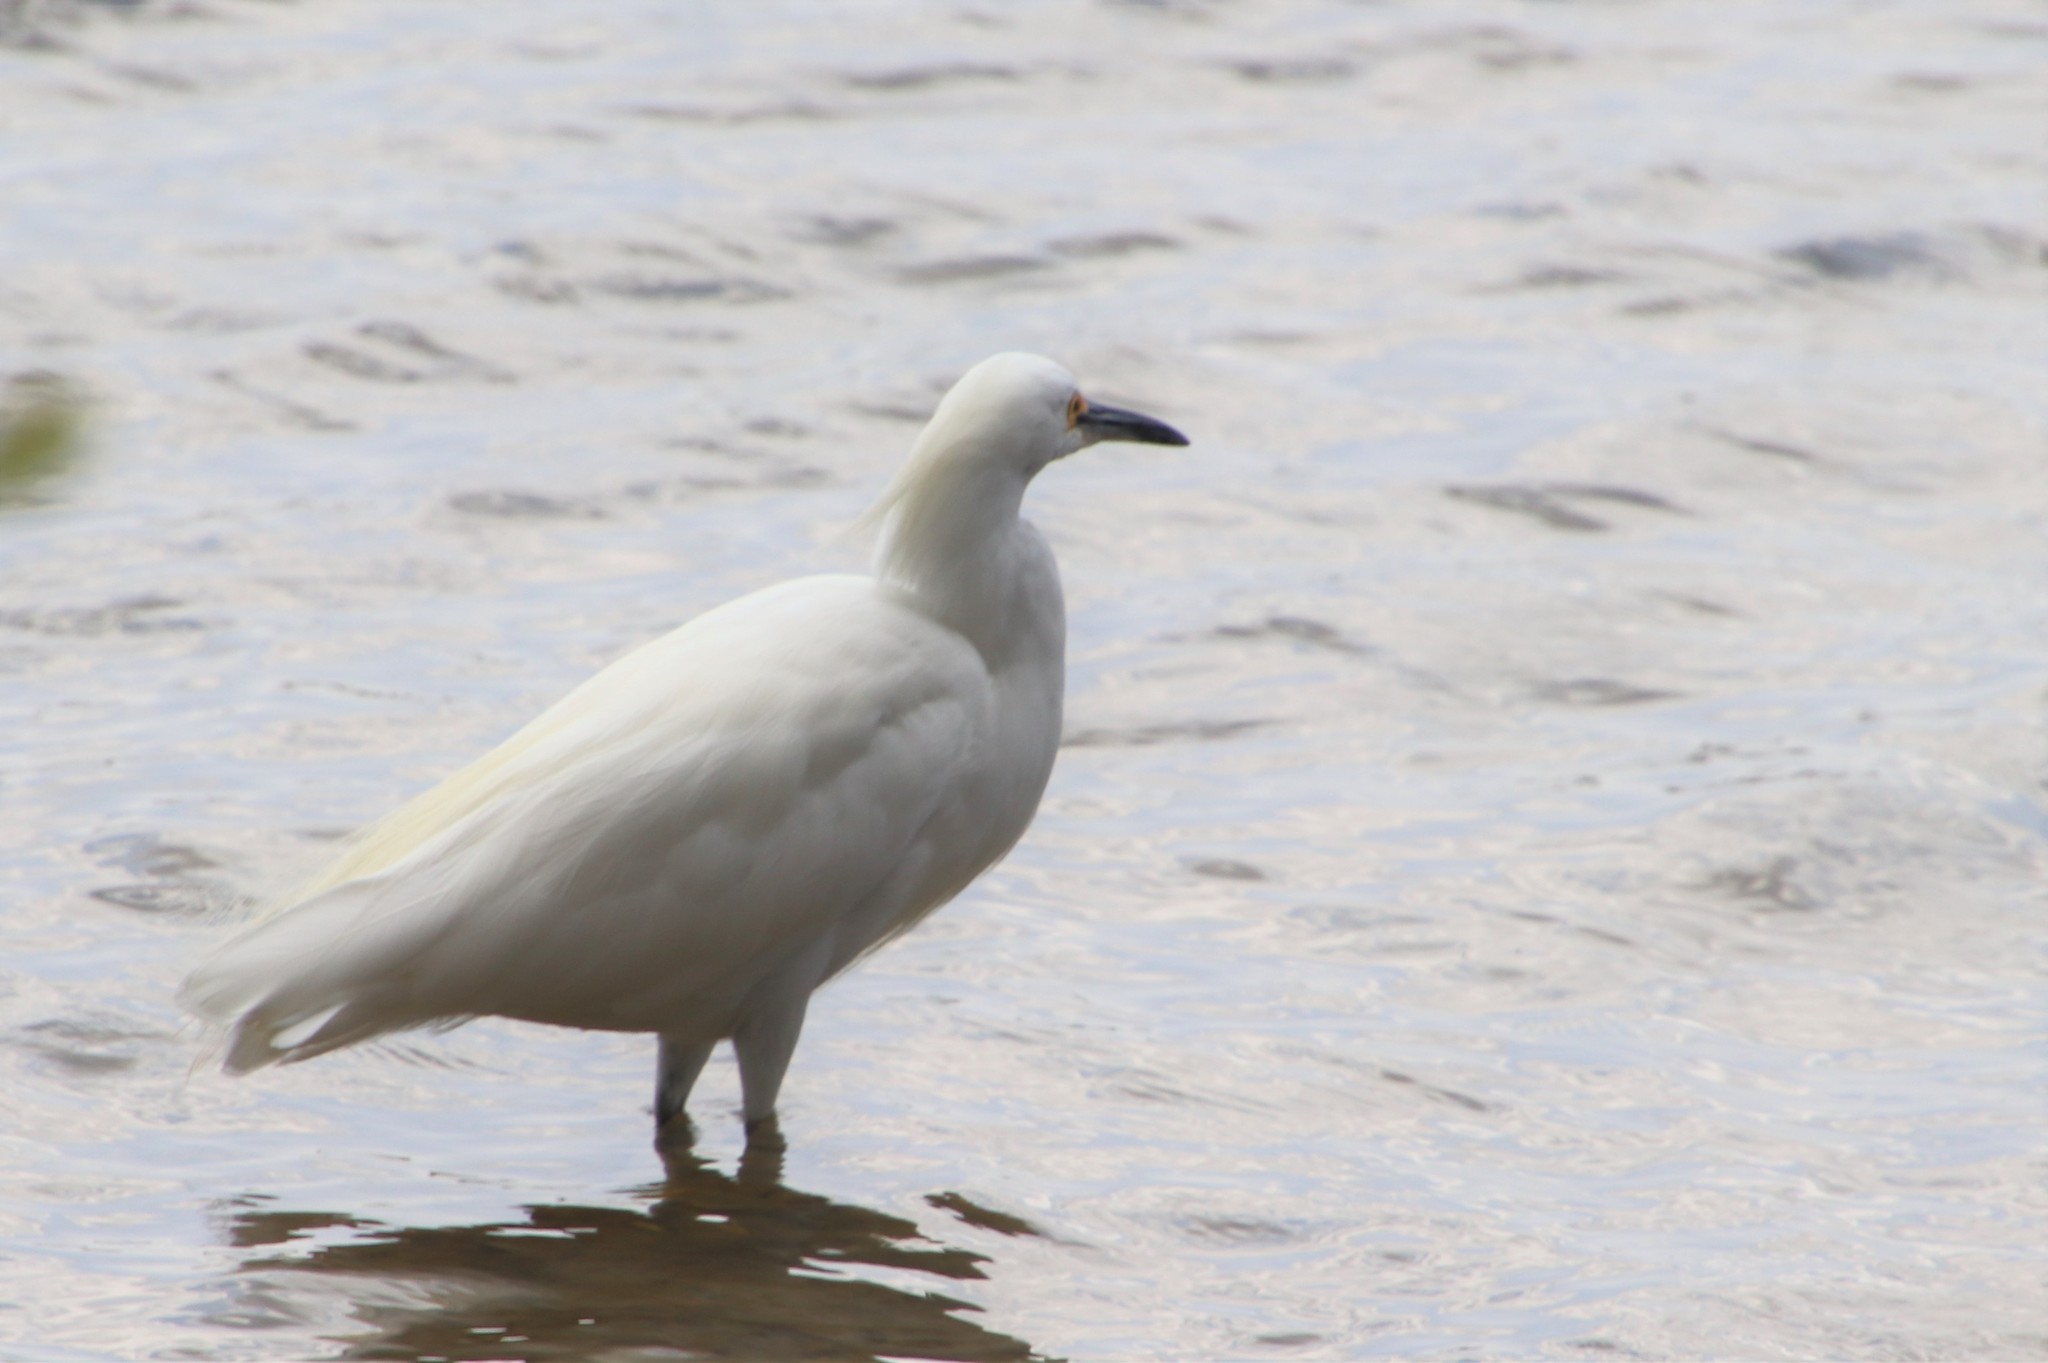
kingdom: Animalia
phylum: Chordata
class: Aves
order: Pelecaniformes
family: Ardeidae
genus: Egretta
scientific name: Egretta thula
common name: Snowy egret
